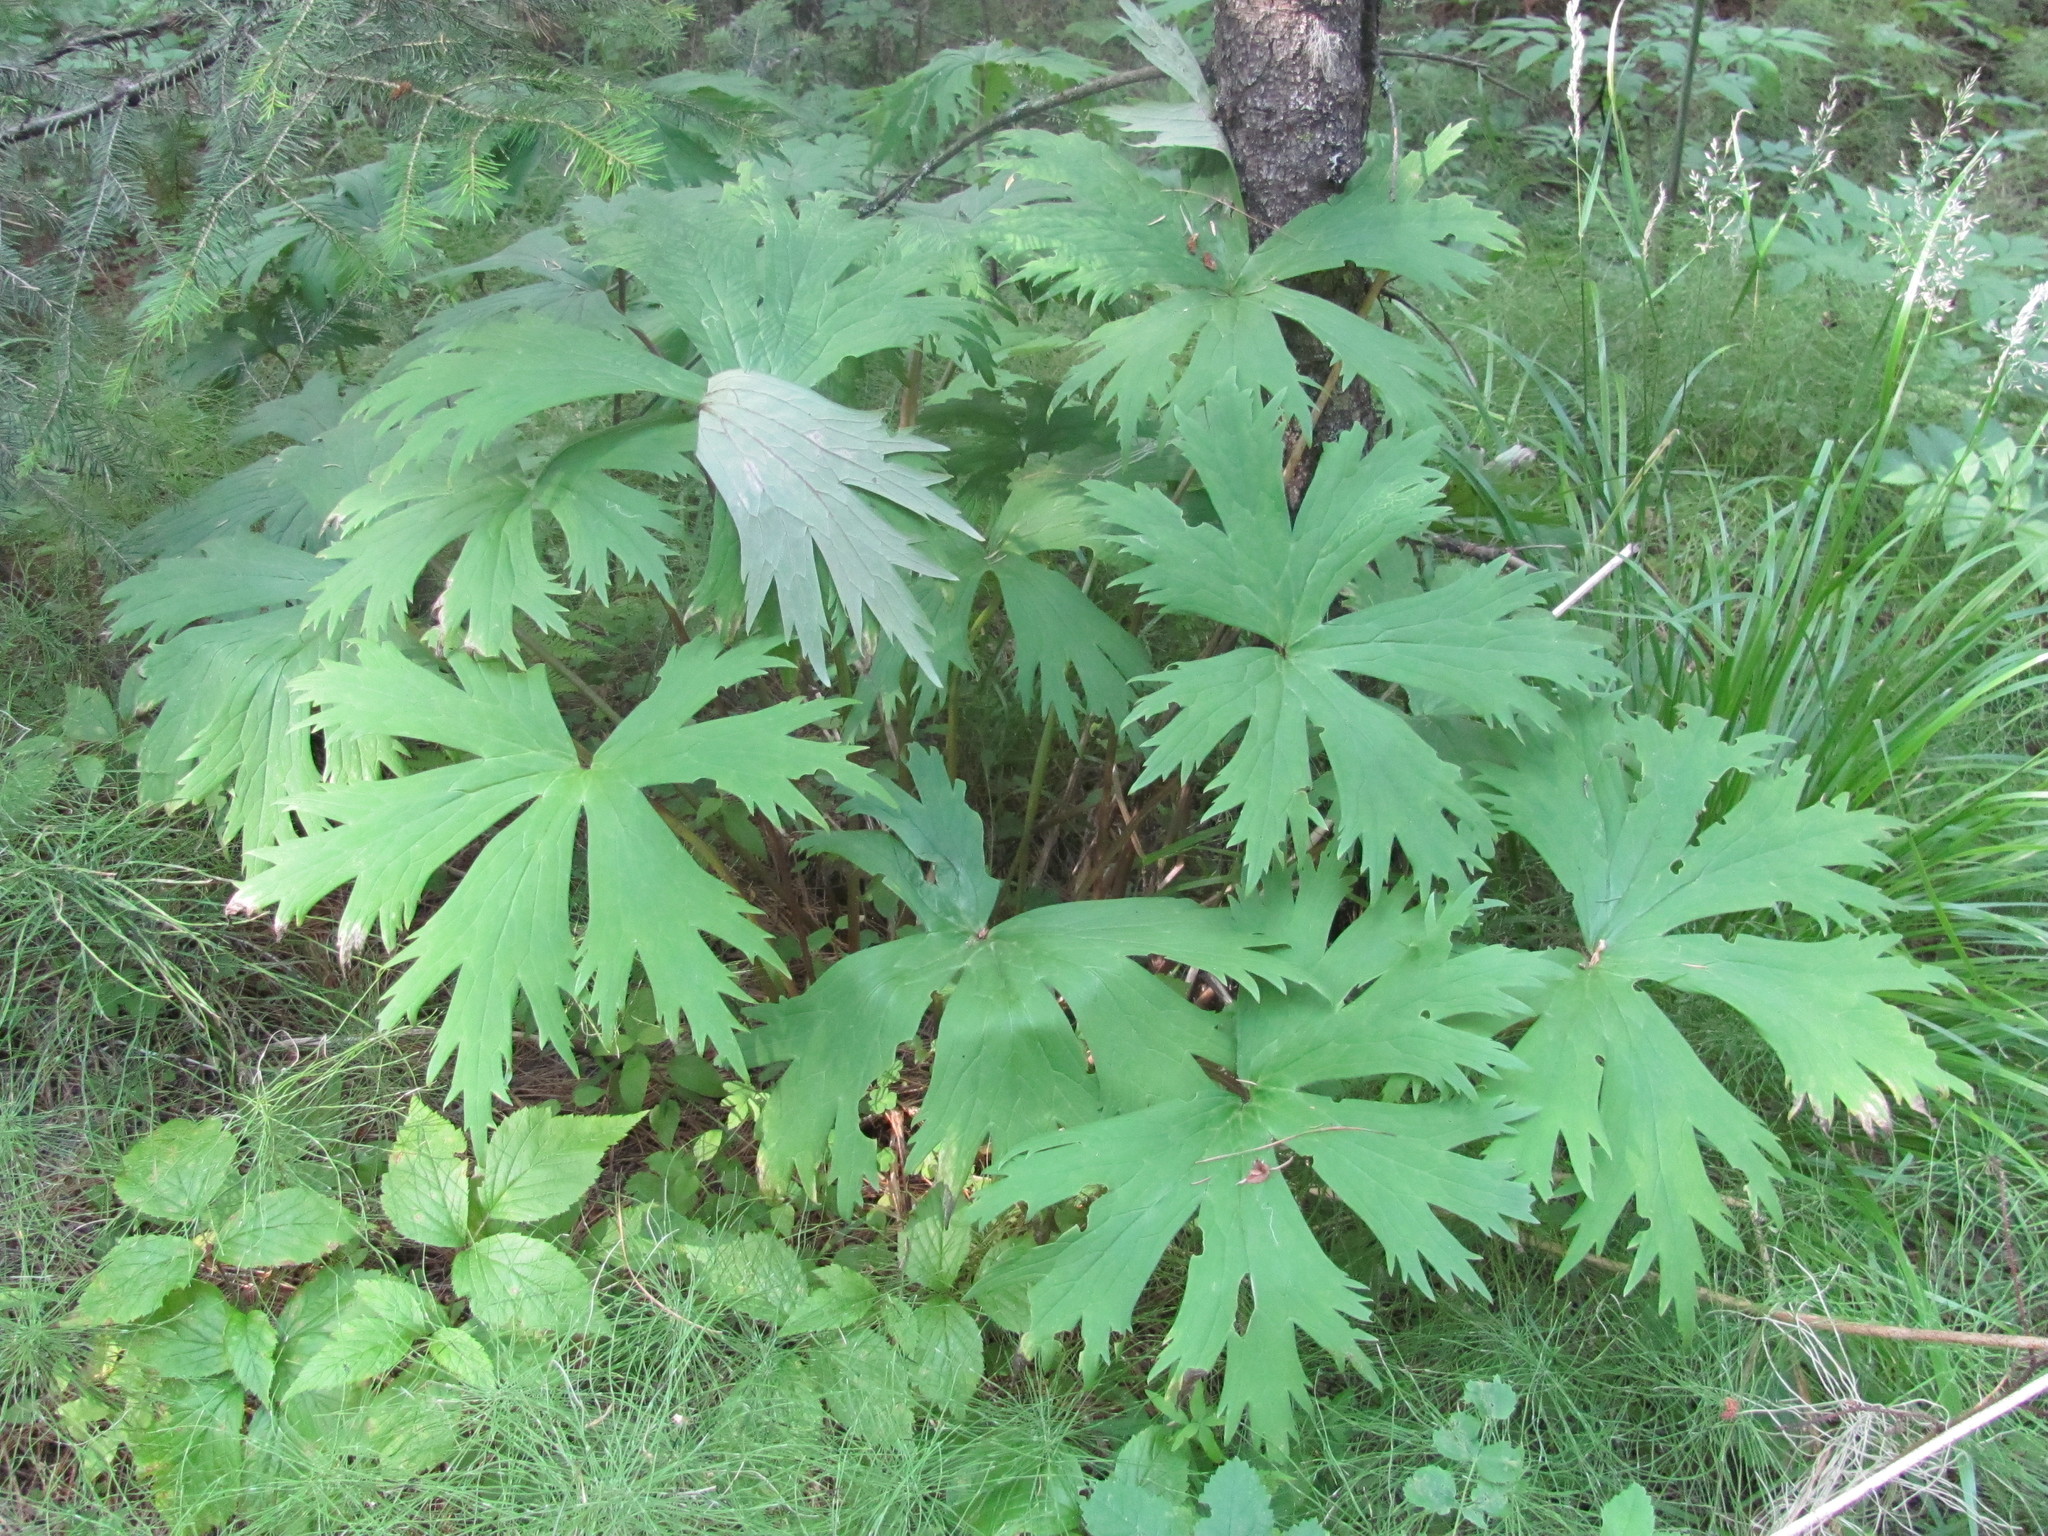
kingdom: Plantae
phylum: Tracheophyta
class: Magnoliopsida
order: Ranunculales
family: Ranunculaceae
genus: Aconitum
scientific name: Aconitum septentrionale
